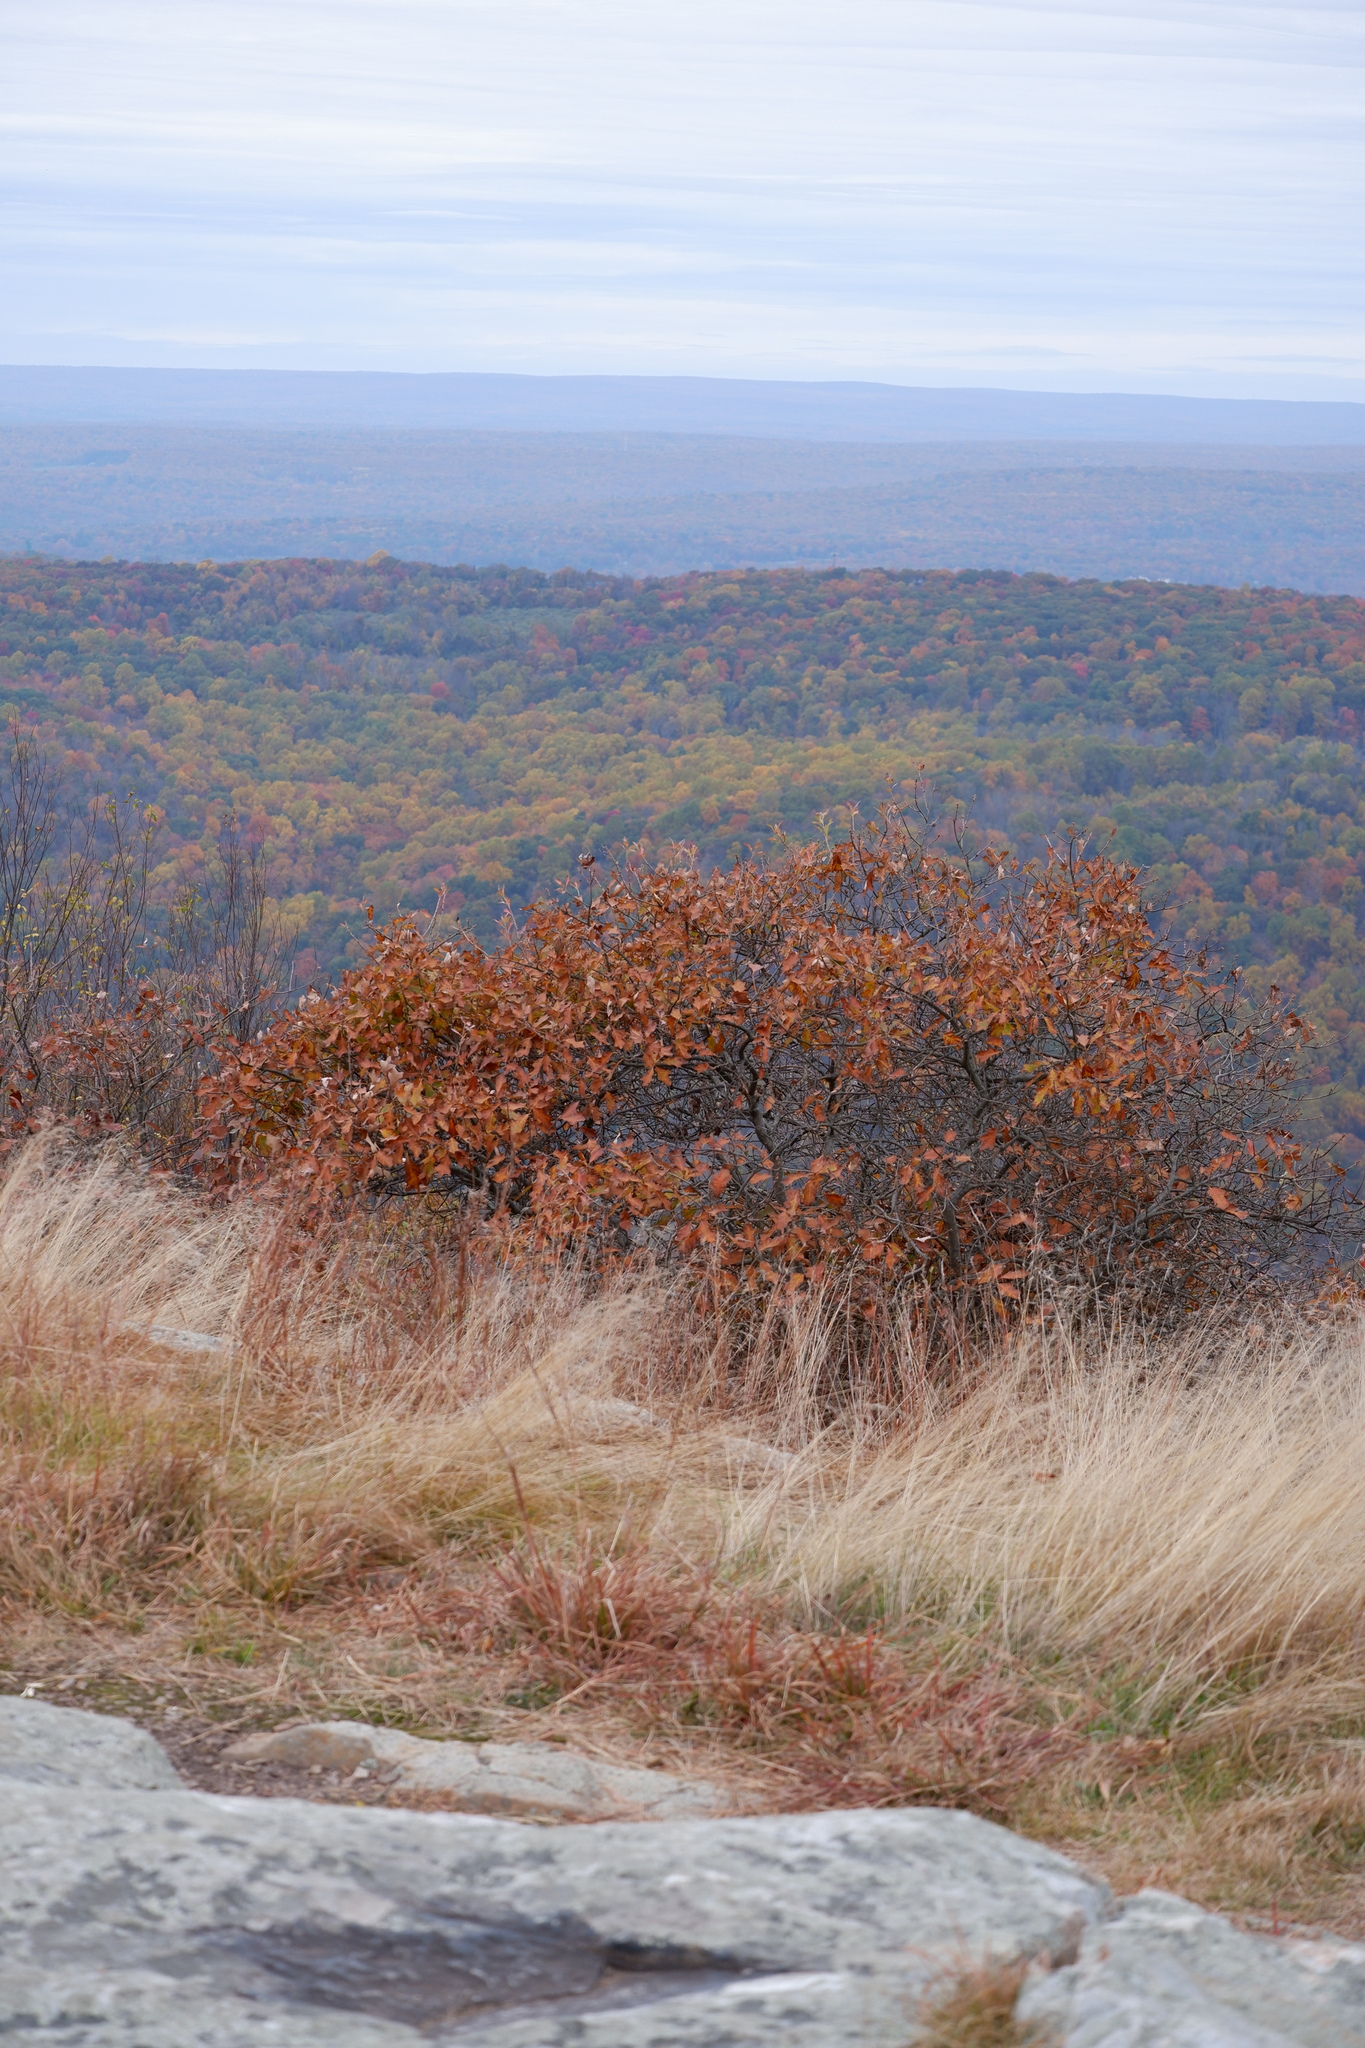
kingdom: Plantae
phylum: Tracheophyta
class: Magnoliopsida
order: Fagales
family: Fagaceae
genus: Quercus
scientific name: Quercus ilicifolia
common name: Bear oak
